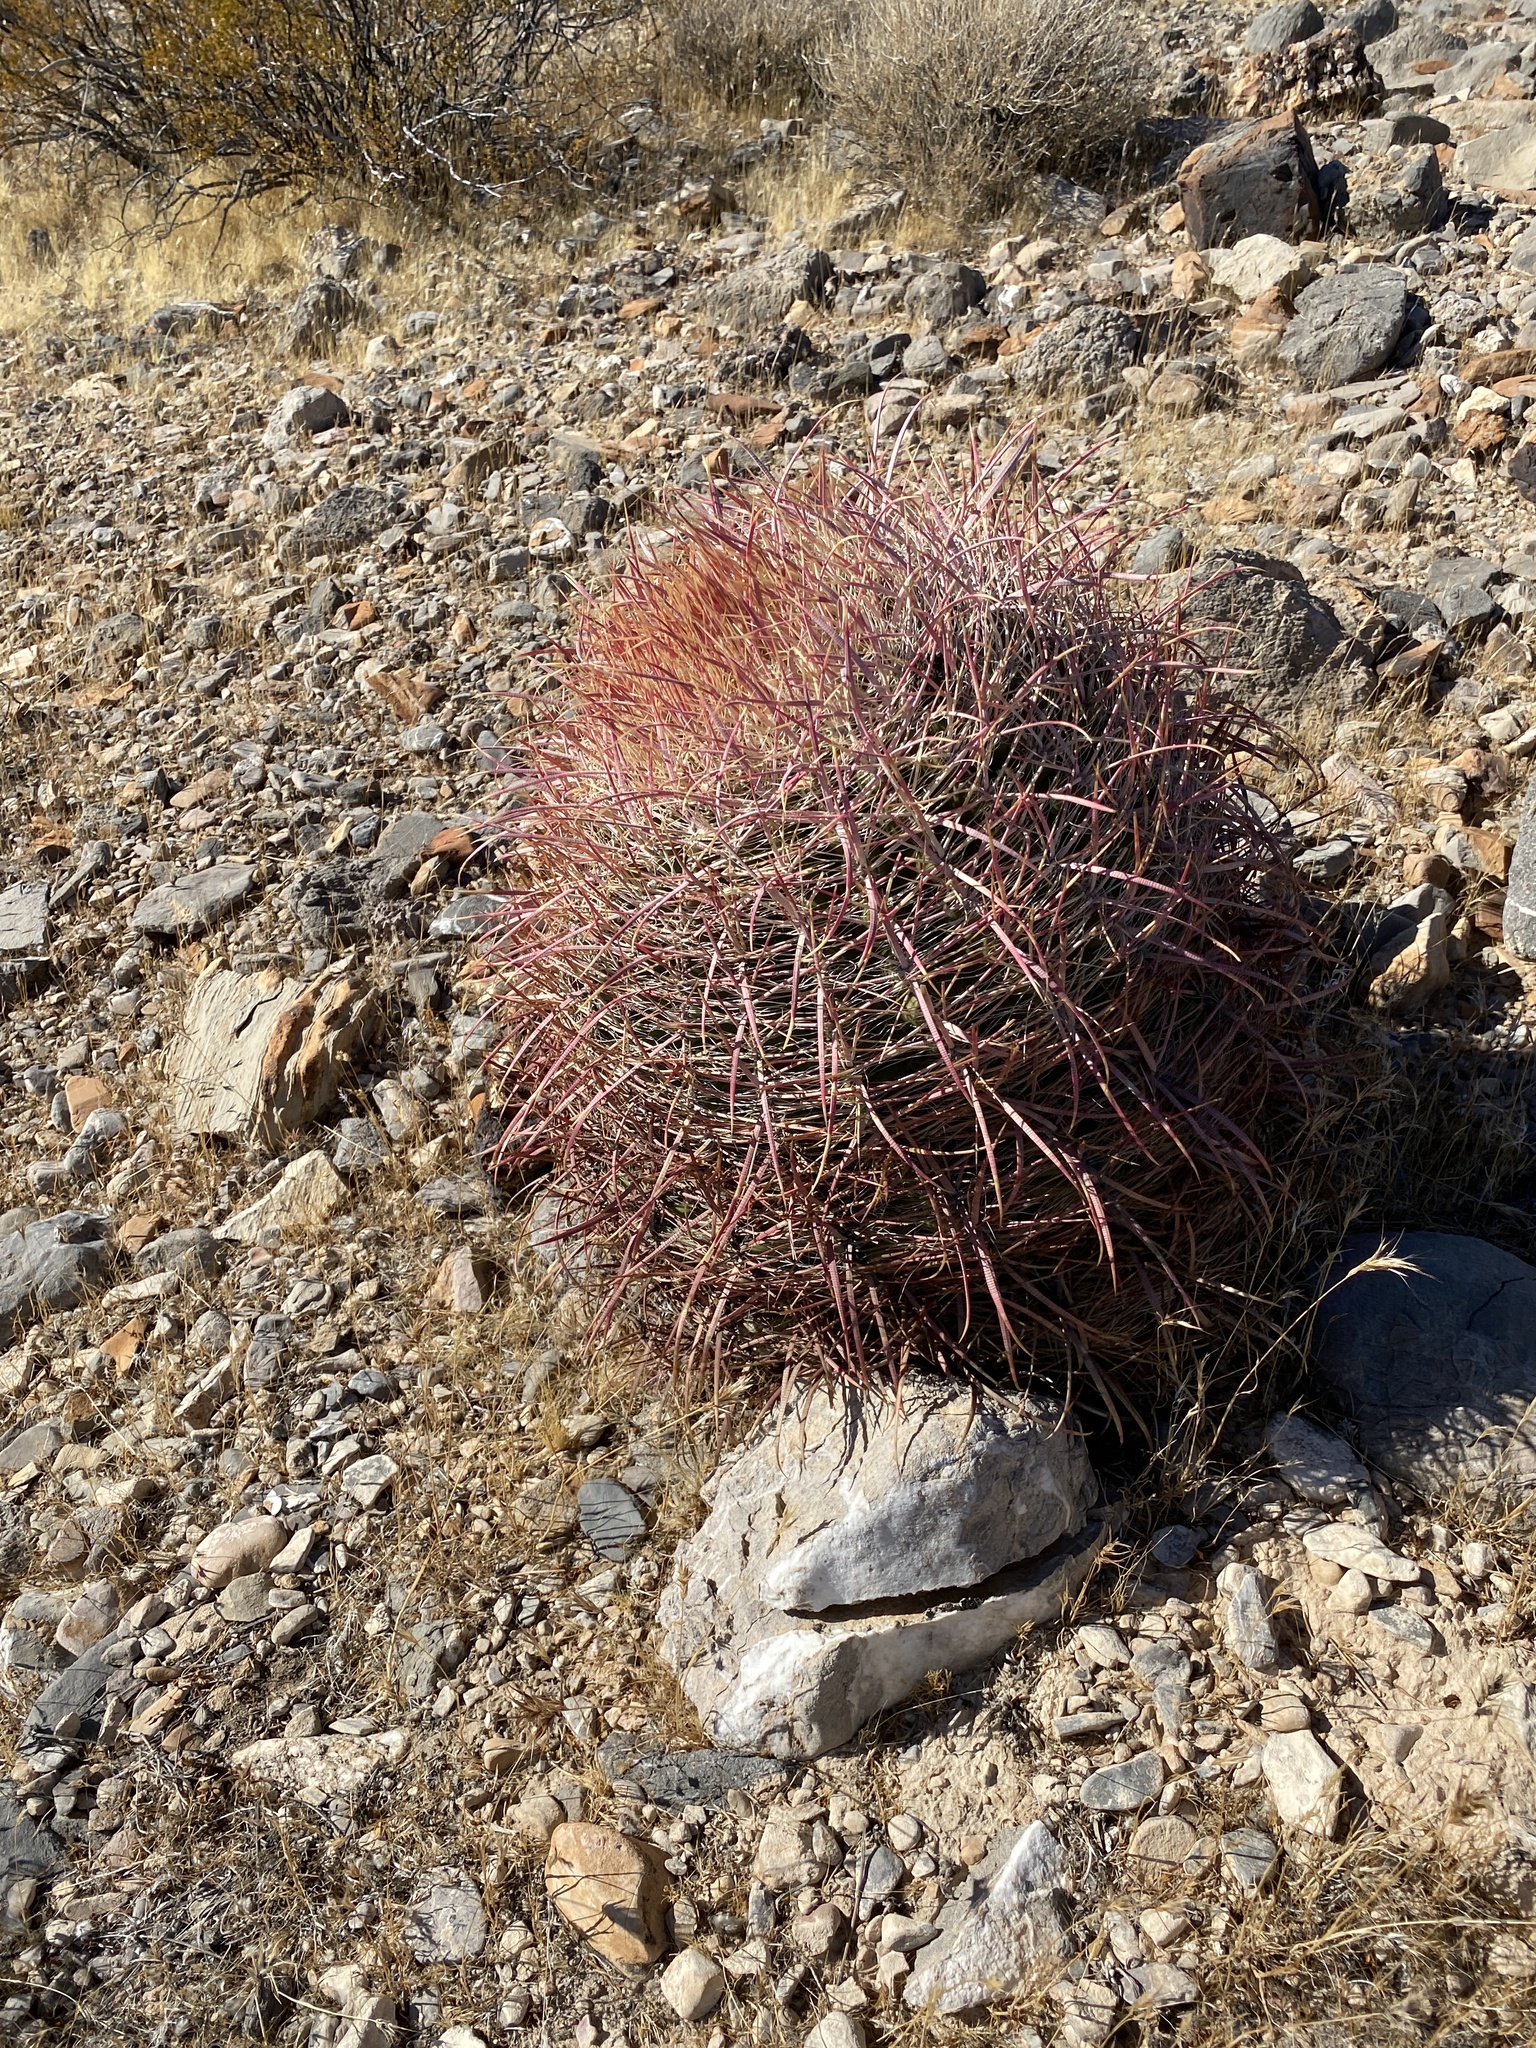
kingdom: Plantae
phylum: Tracheophyta
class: Magnoliopsida
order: Caryophyllales
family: Cactaceae
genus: Ferocactus
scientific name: Ferocactus cylindraceus
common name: California barrel cactus
